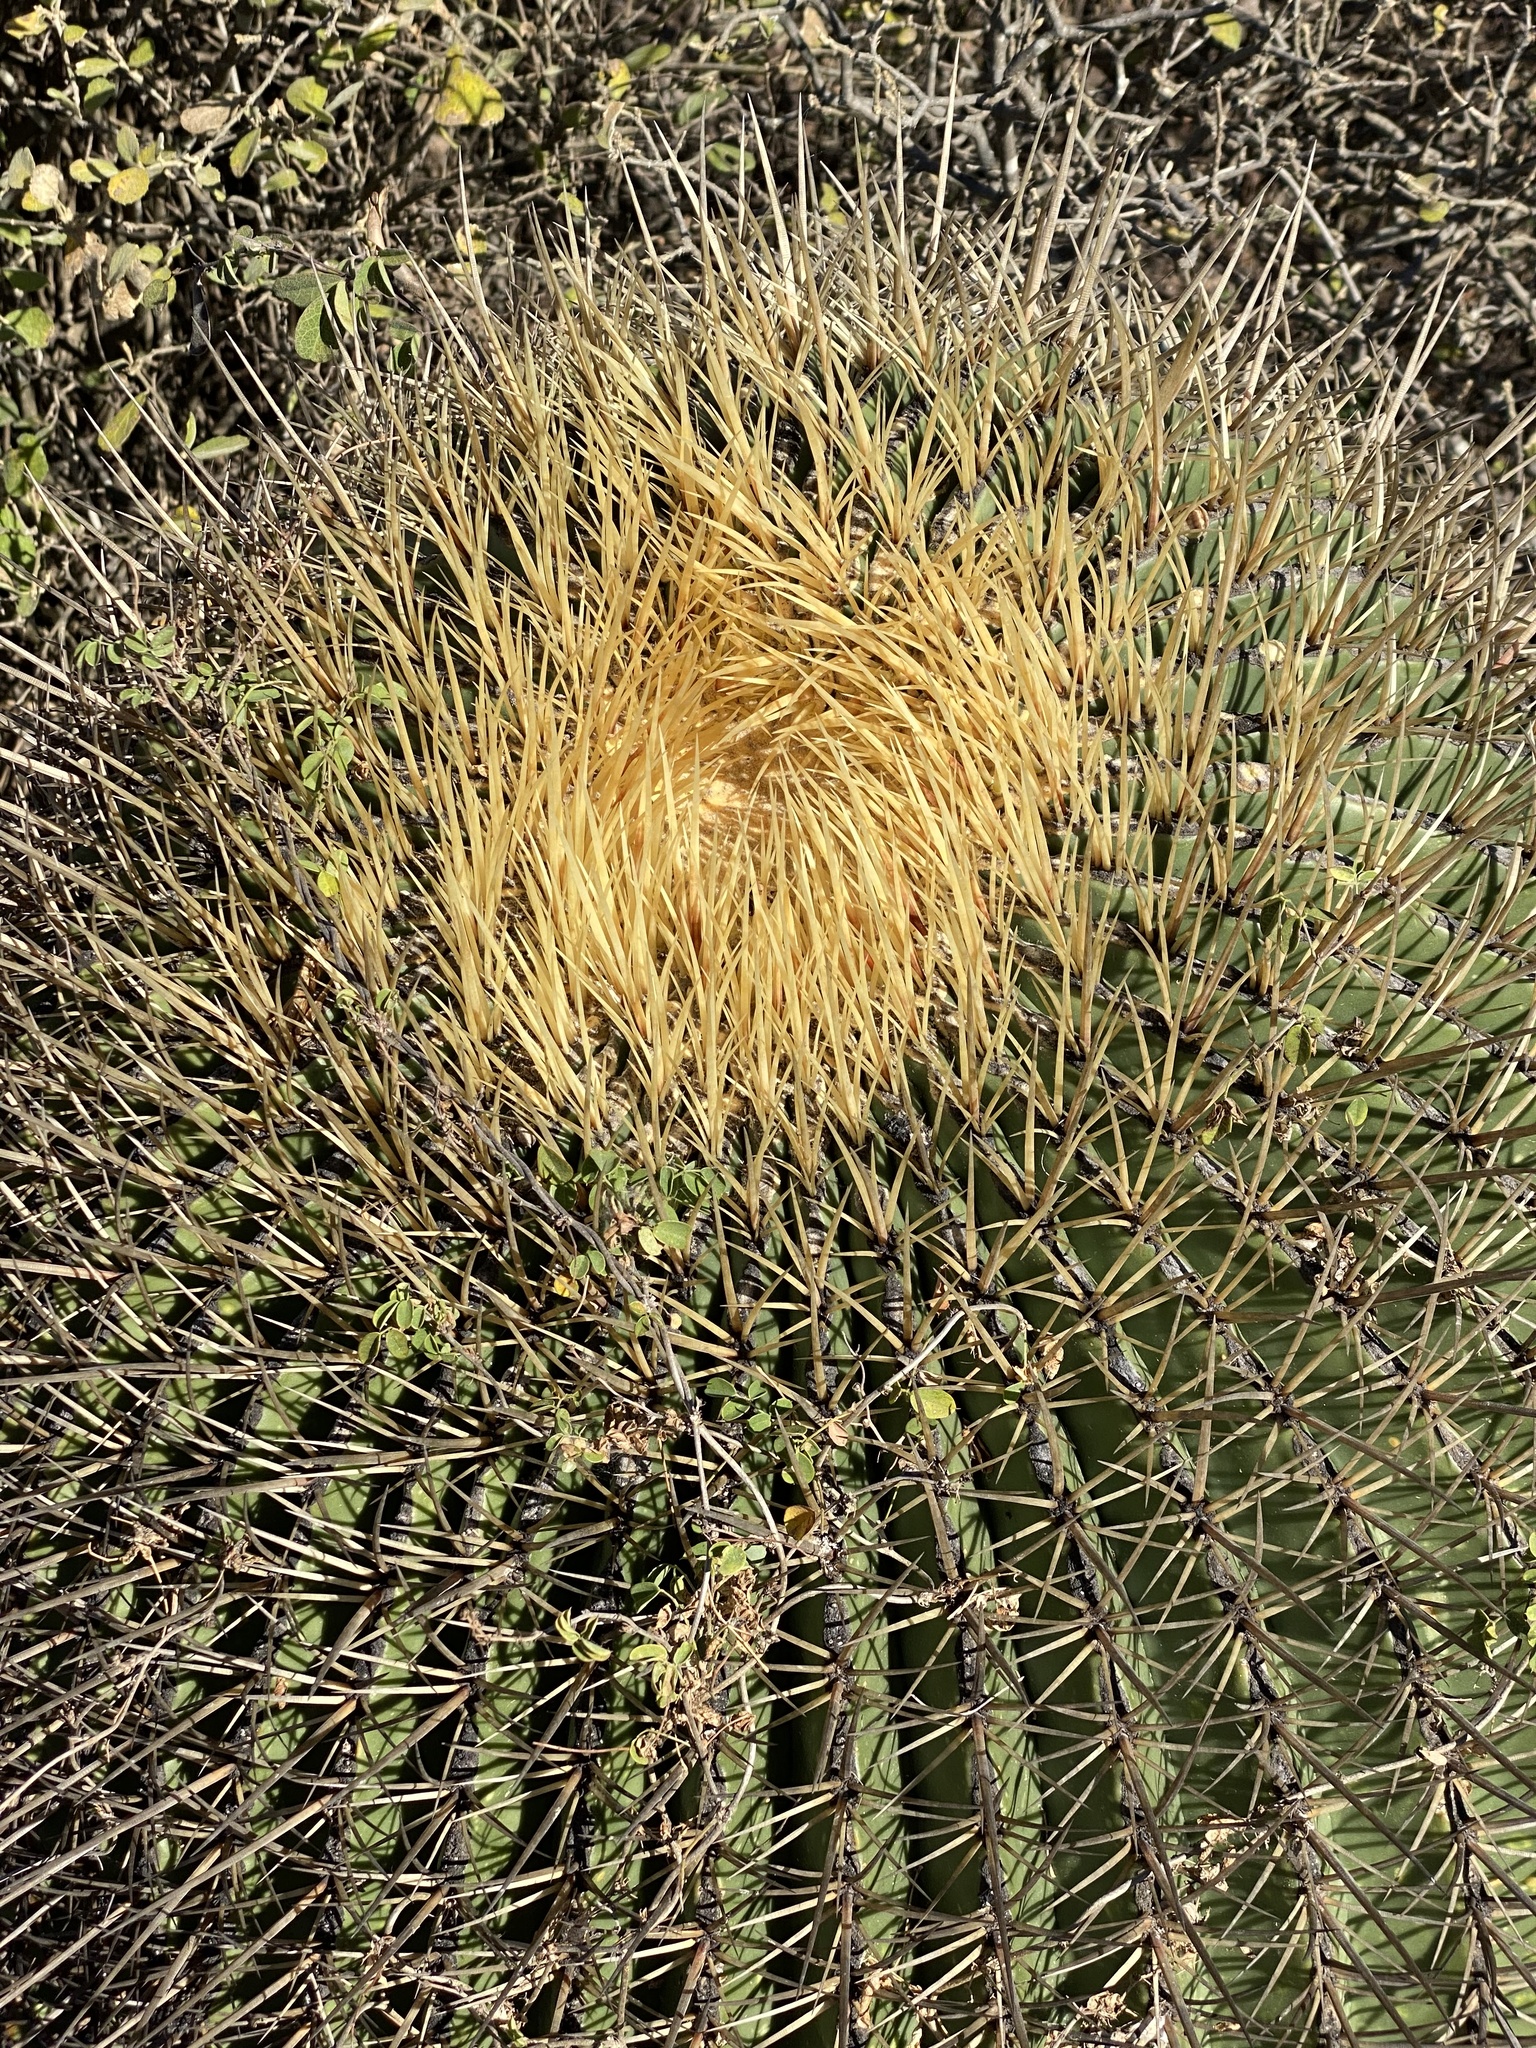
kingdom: Plantae
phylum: Tracheophyta
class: Magnoliopsida
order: Caryophyllales
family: Cactaceae
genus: Bisnaga
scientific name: Bisnaga histrix
